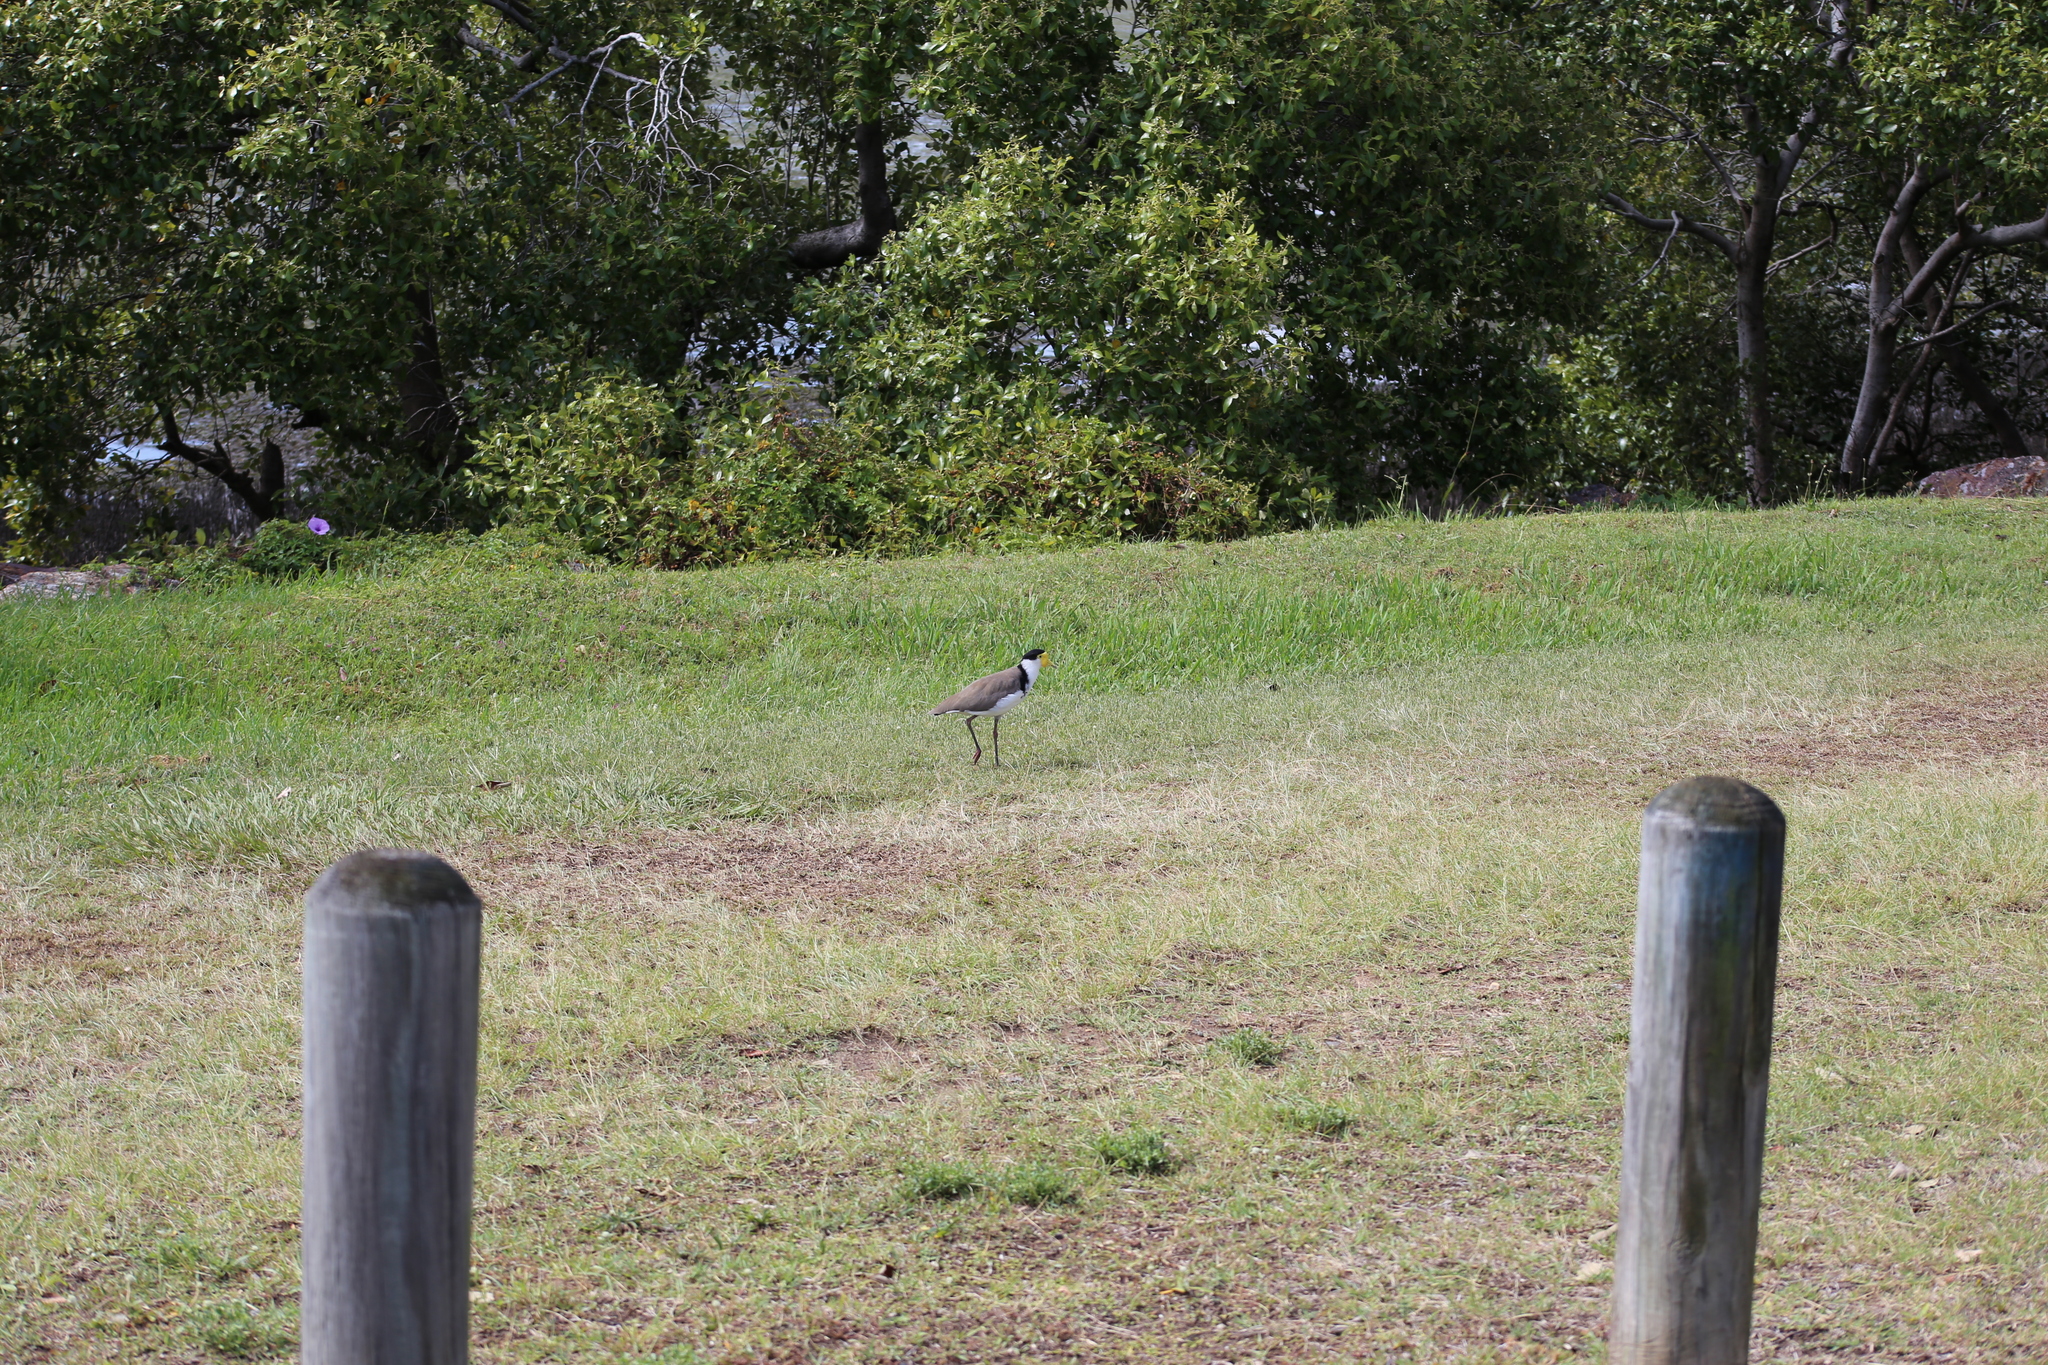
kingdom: Animalia
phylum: Chordata
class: Aves
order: Charadriiformes
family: Charadriidae
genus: Vanellus
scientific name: Vanellus miles
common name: Masked lapwing
